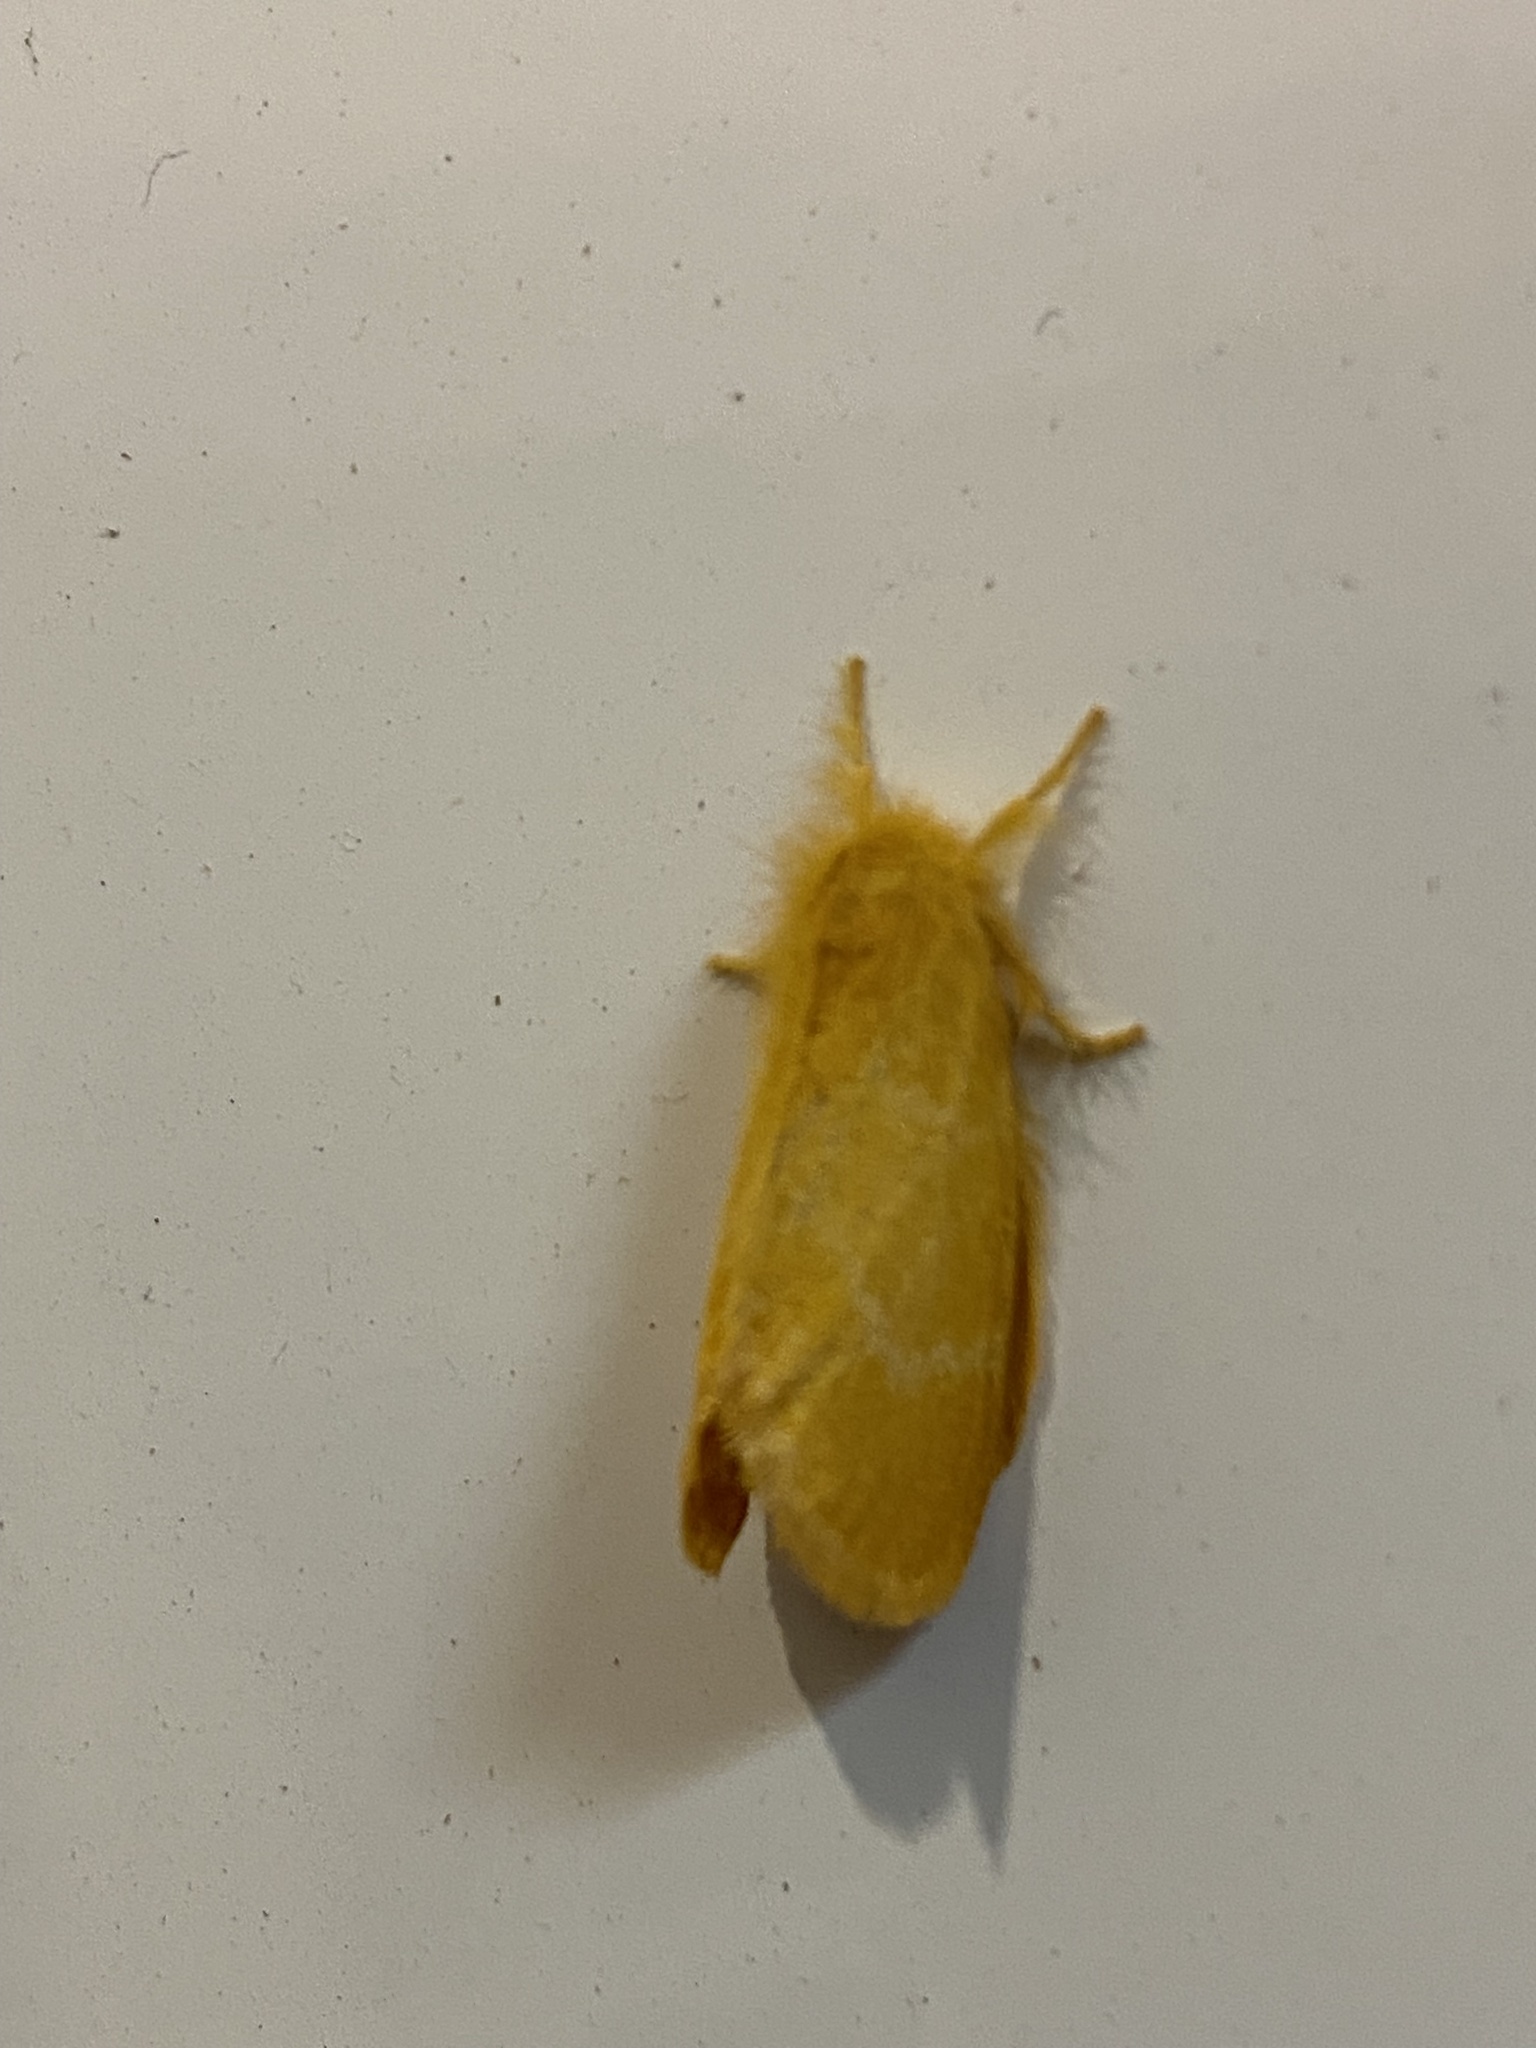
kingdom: Animalia
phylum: Arthropoda
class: Insecta
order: Lepidoptera
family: Erebidae
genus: Euproctis
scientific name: Euproctis lutea
